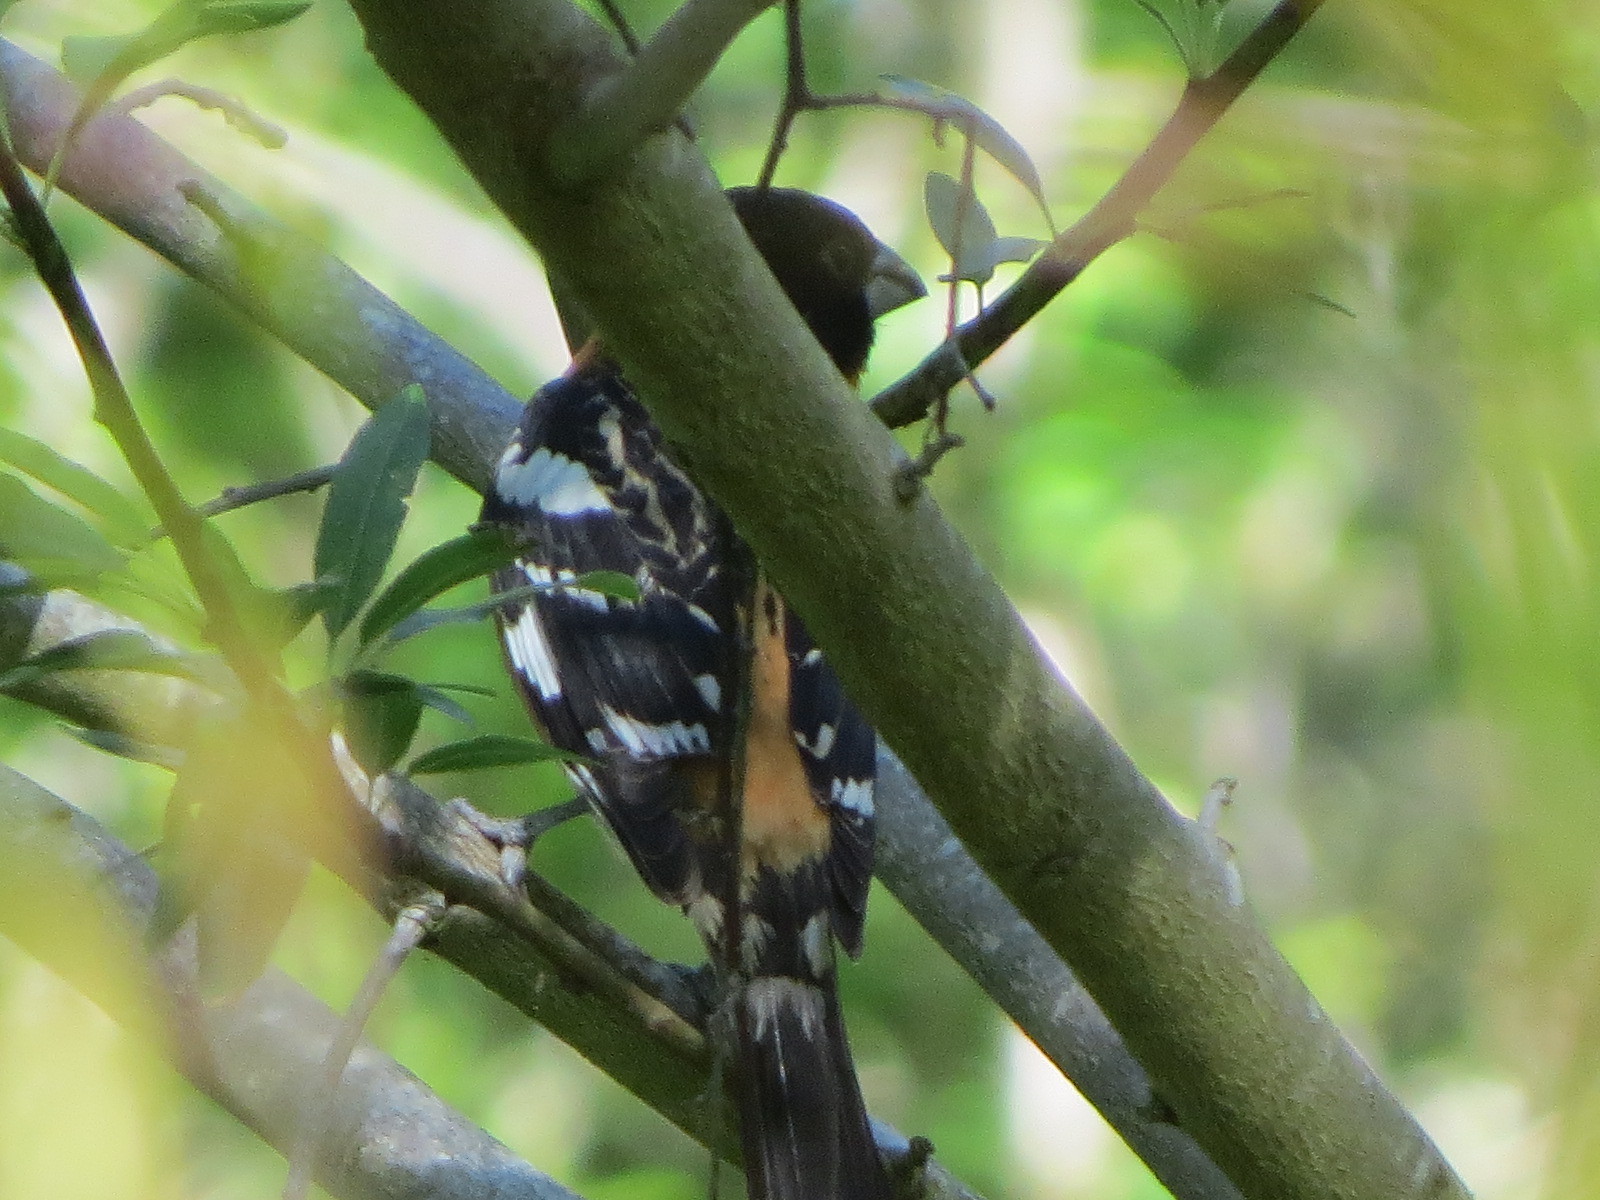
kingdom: Animalia
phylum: Chordata
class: Aves
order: Passeriformes
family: Cardinalidae
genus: Pheucticus
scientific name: Pheucticus melanocephalus
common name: Black-headed grosbeak
